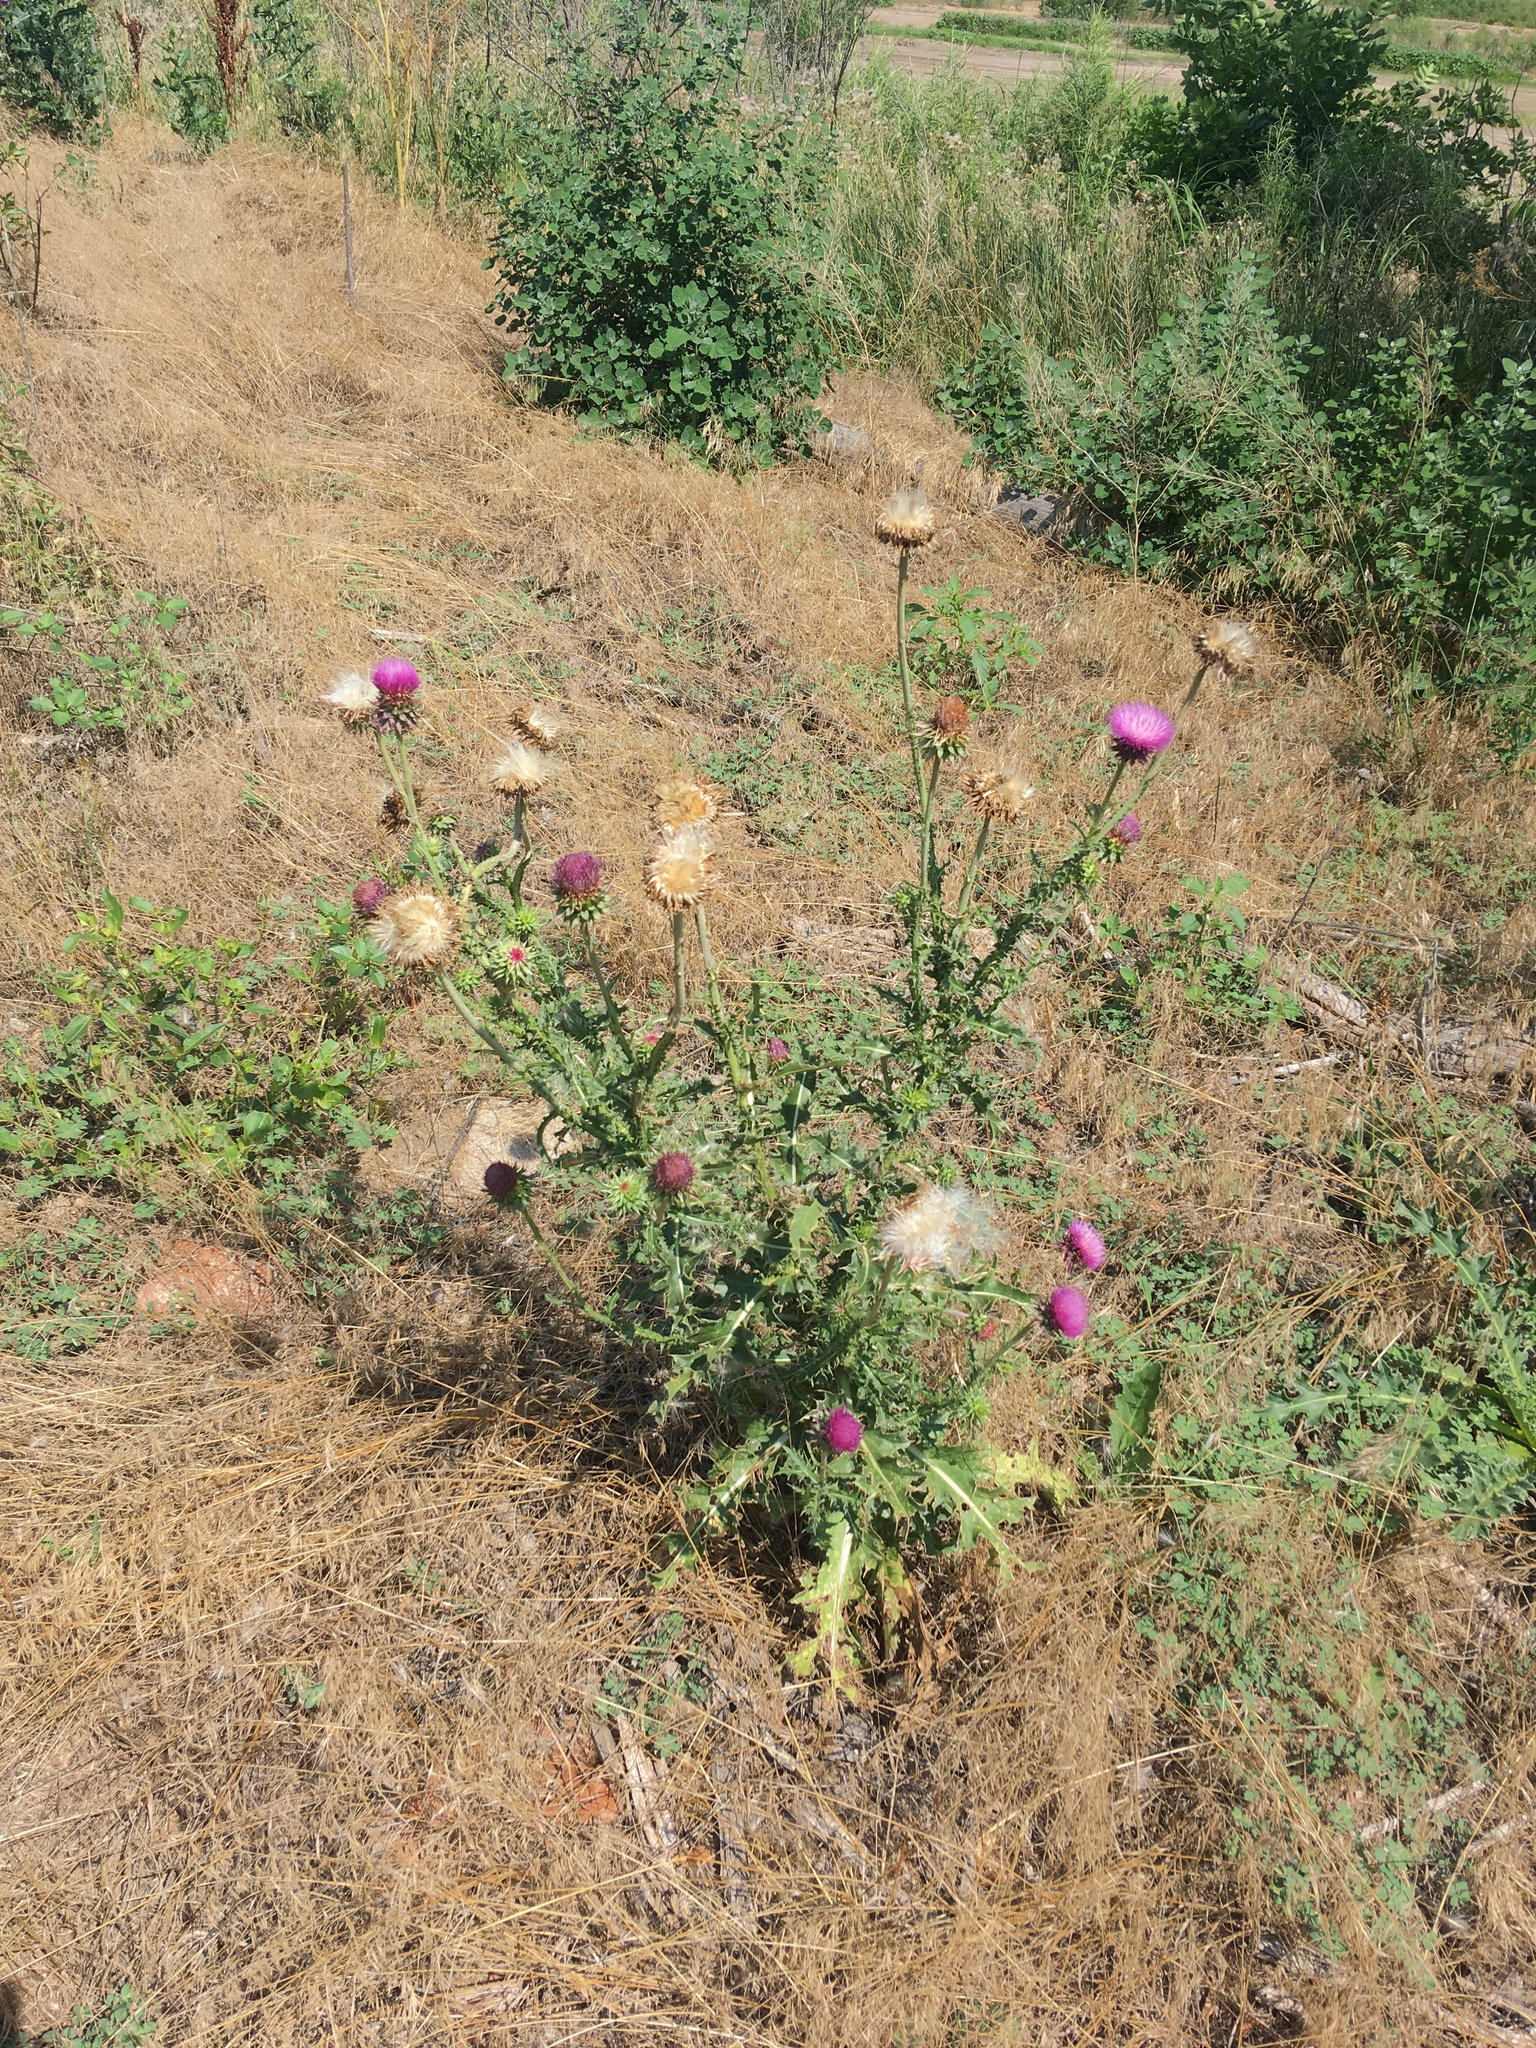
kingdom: Plantae
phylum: Tracheophyta
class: Magnoliopsida
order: Asterales
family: Asteraceae
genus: Carduus
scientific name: Carduus nutans
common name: Musk thistle
